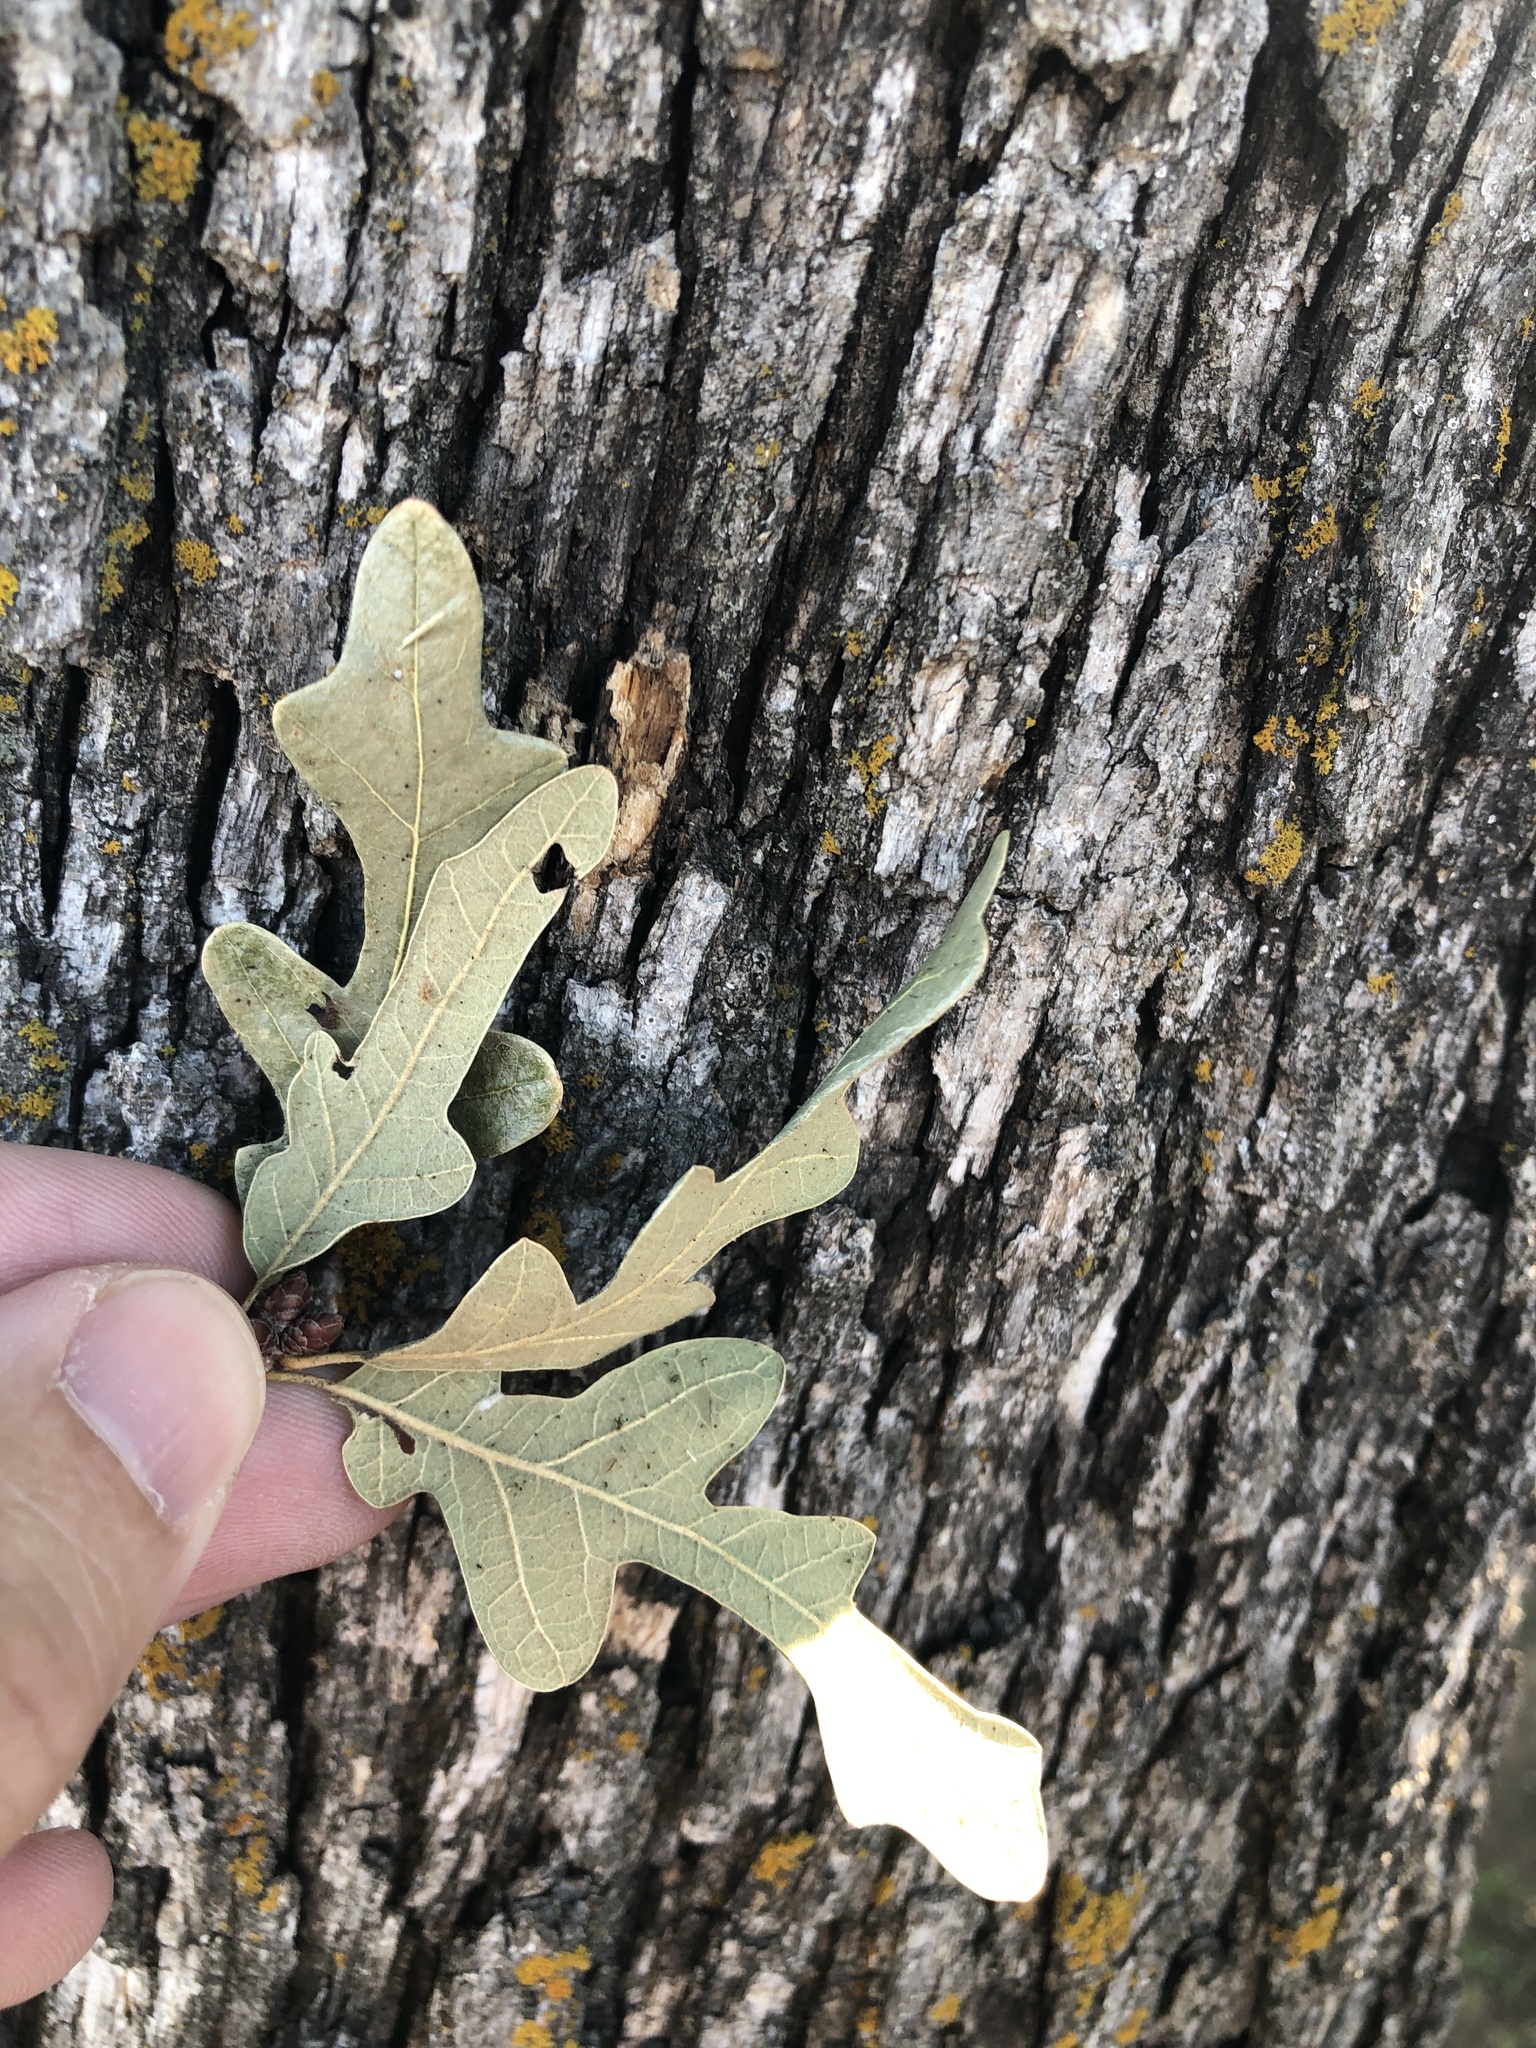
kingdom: Plantae
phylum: Tracheophyta
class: Magnoliopsida
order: Fagales
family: Fagaceae
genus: Quercus
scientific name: Quercus stellata
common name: Post oak
